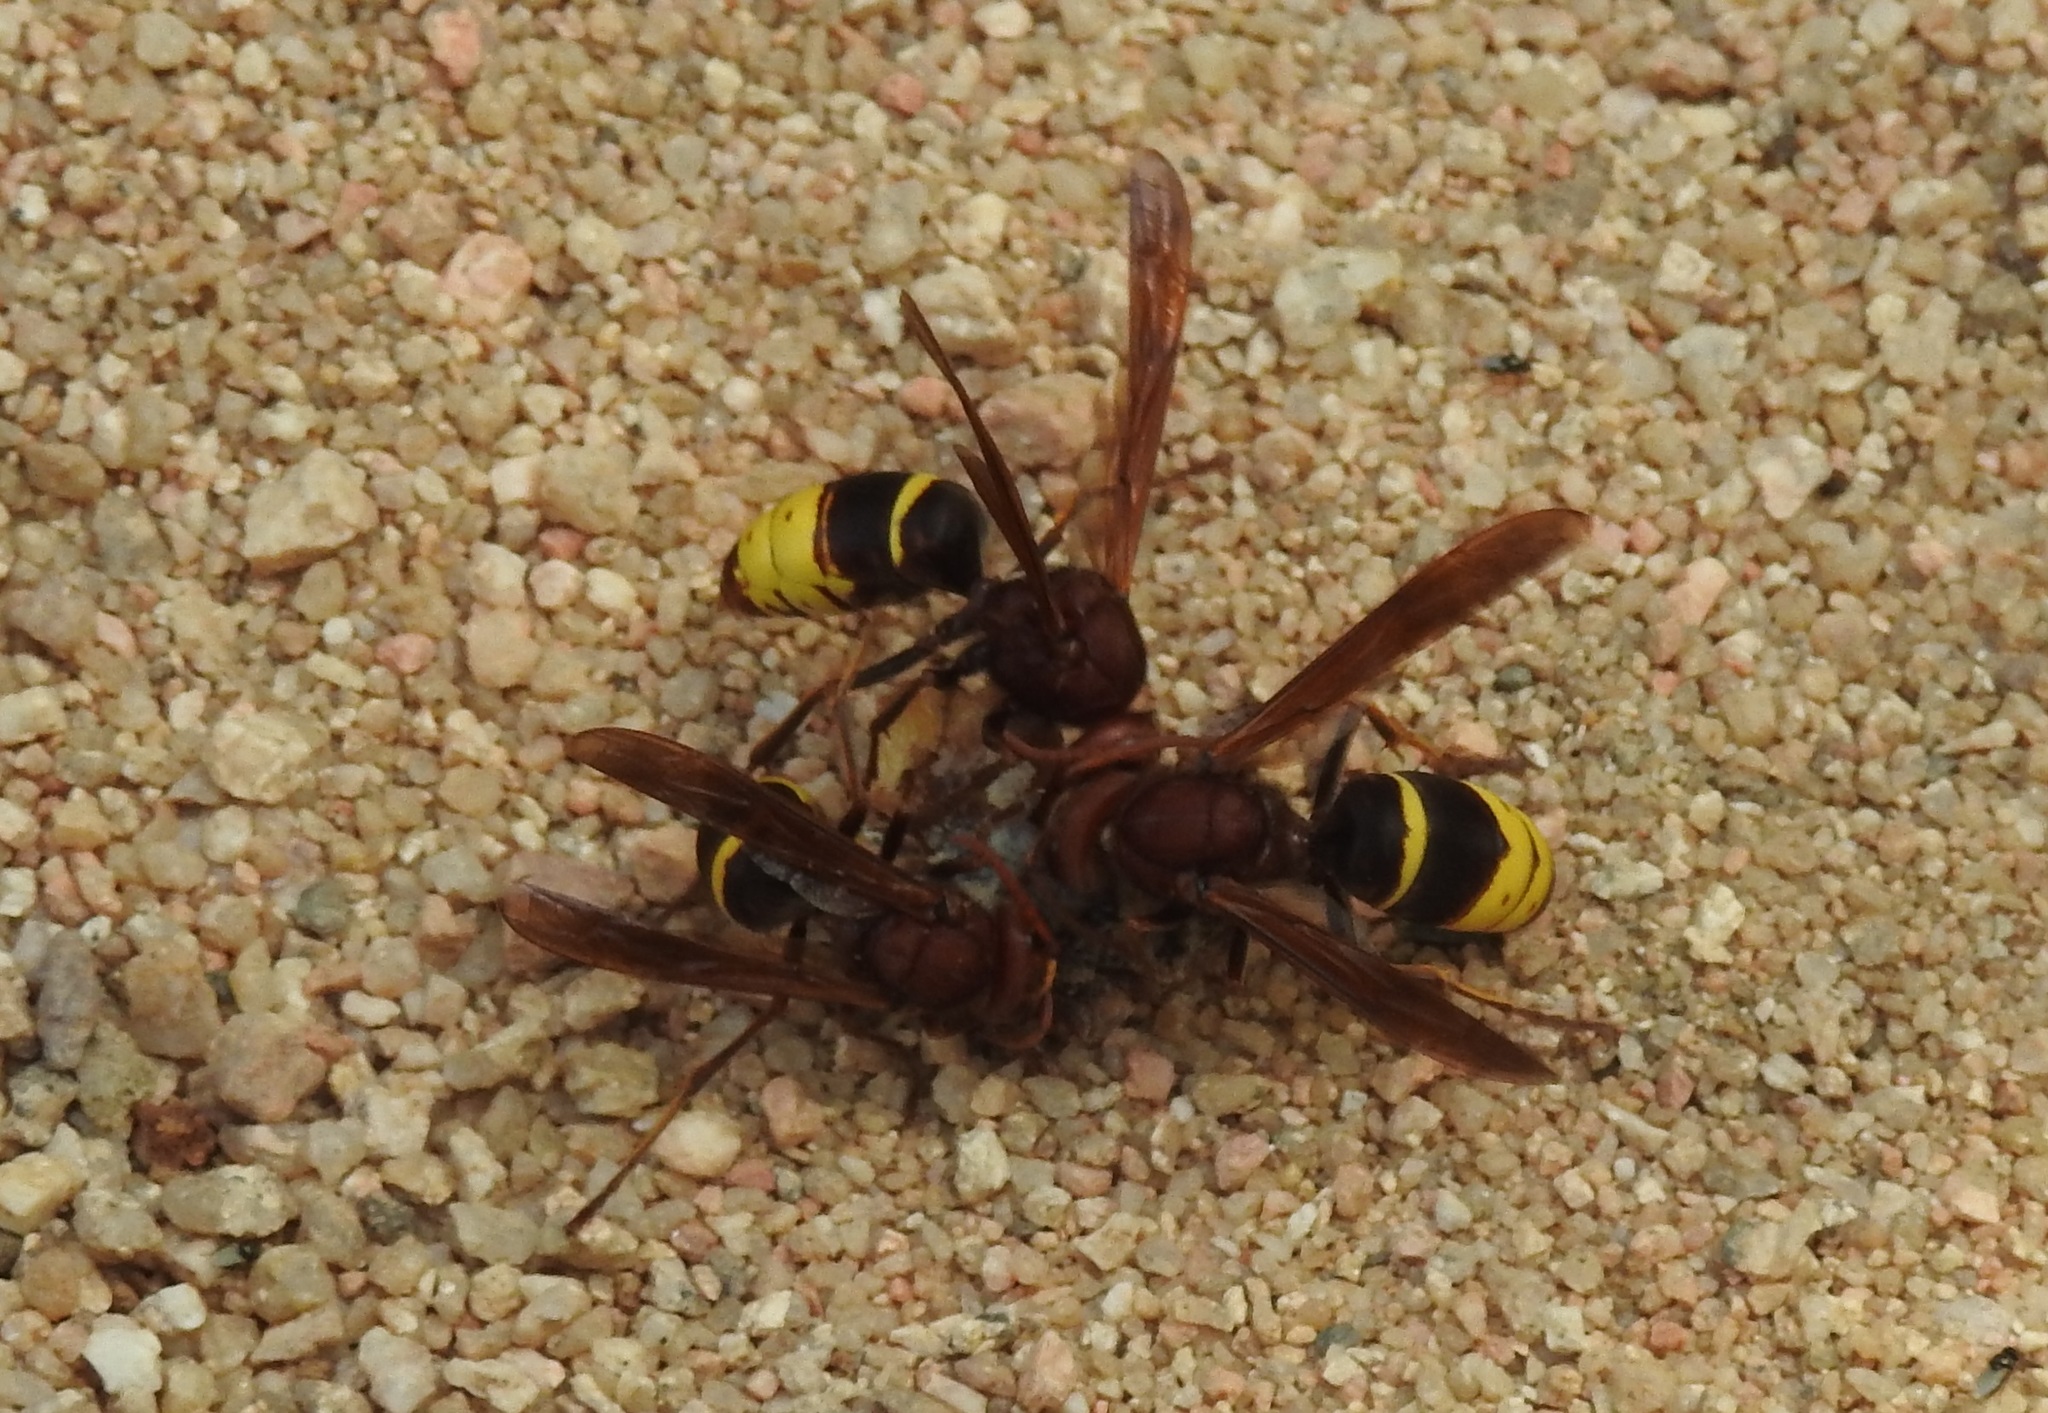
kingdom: Animalia
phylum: Arthropoda
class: Insecta
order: Hymenoptera
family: Vespidae
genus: Vespa
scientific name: Vespa orientalis
